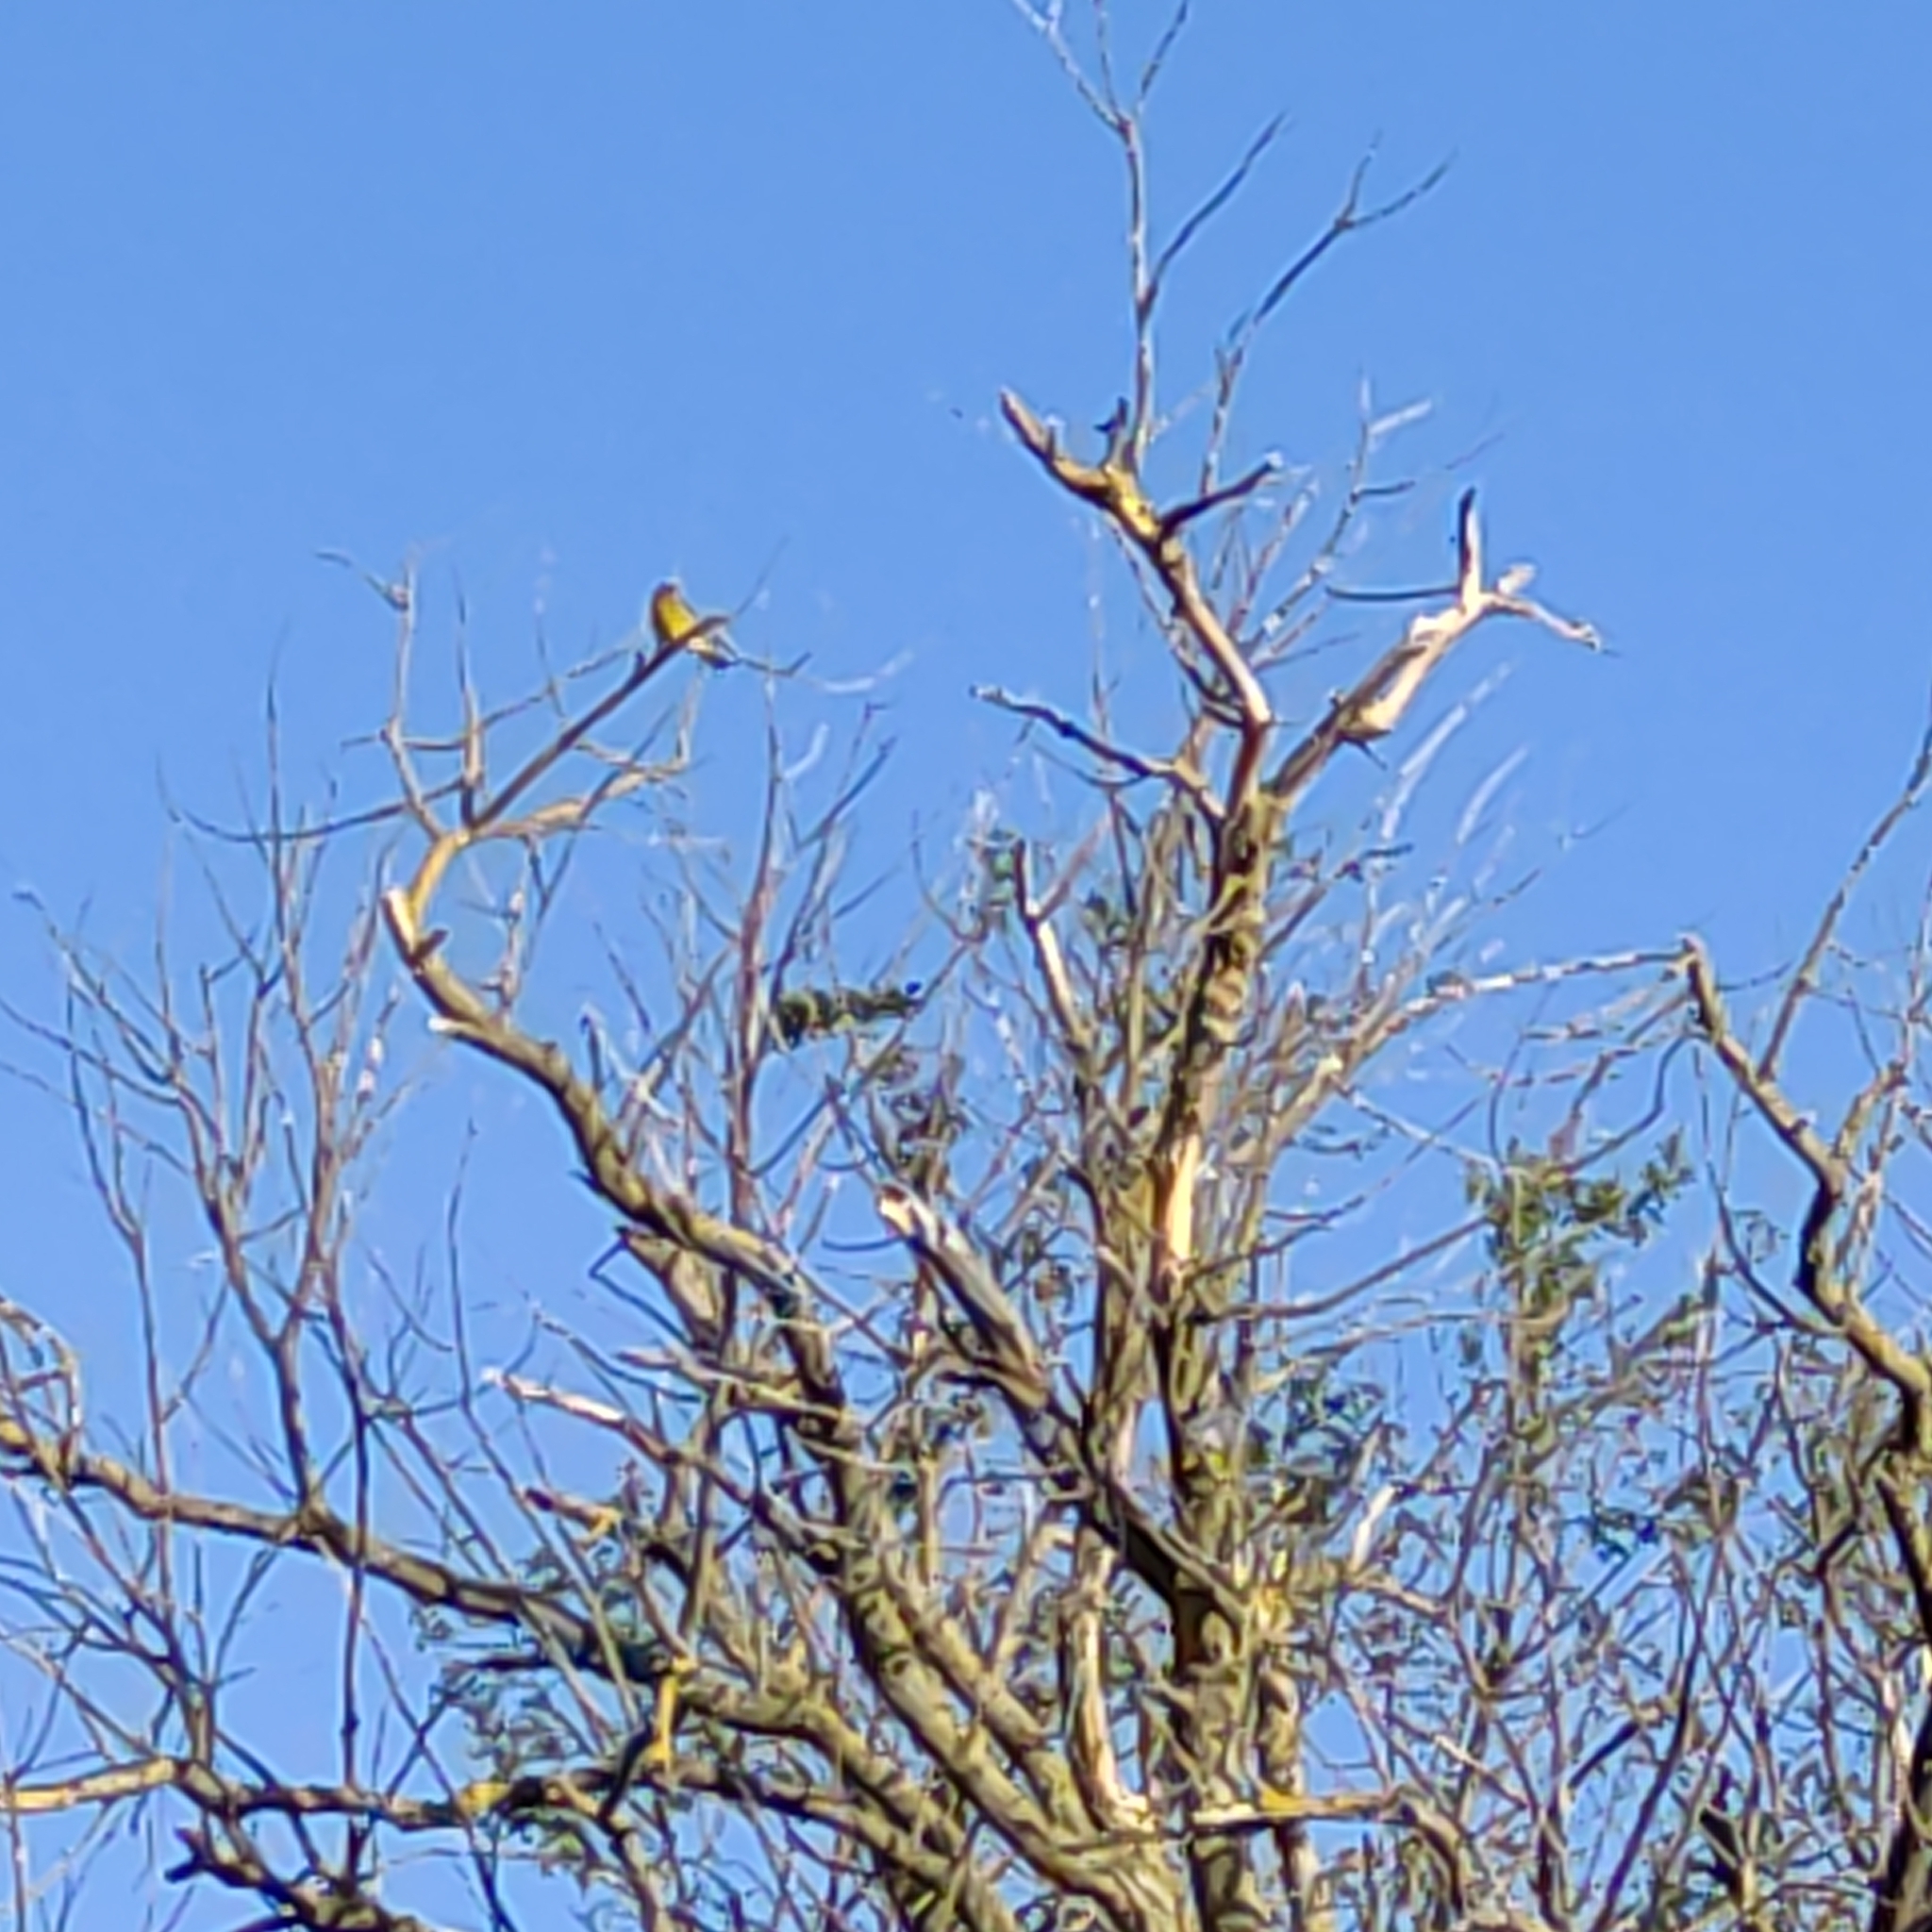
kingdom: Plantae
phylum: Tracheophyta
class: Liliopsida
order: Poales
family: Poaceae
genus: Chloris
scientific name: Chloris chloris
